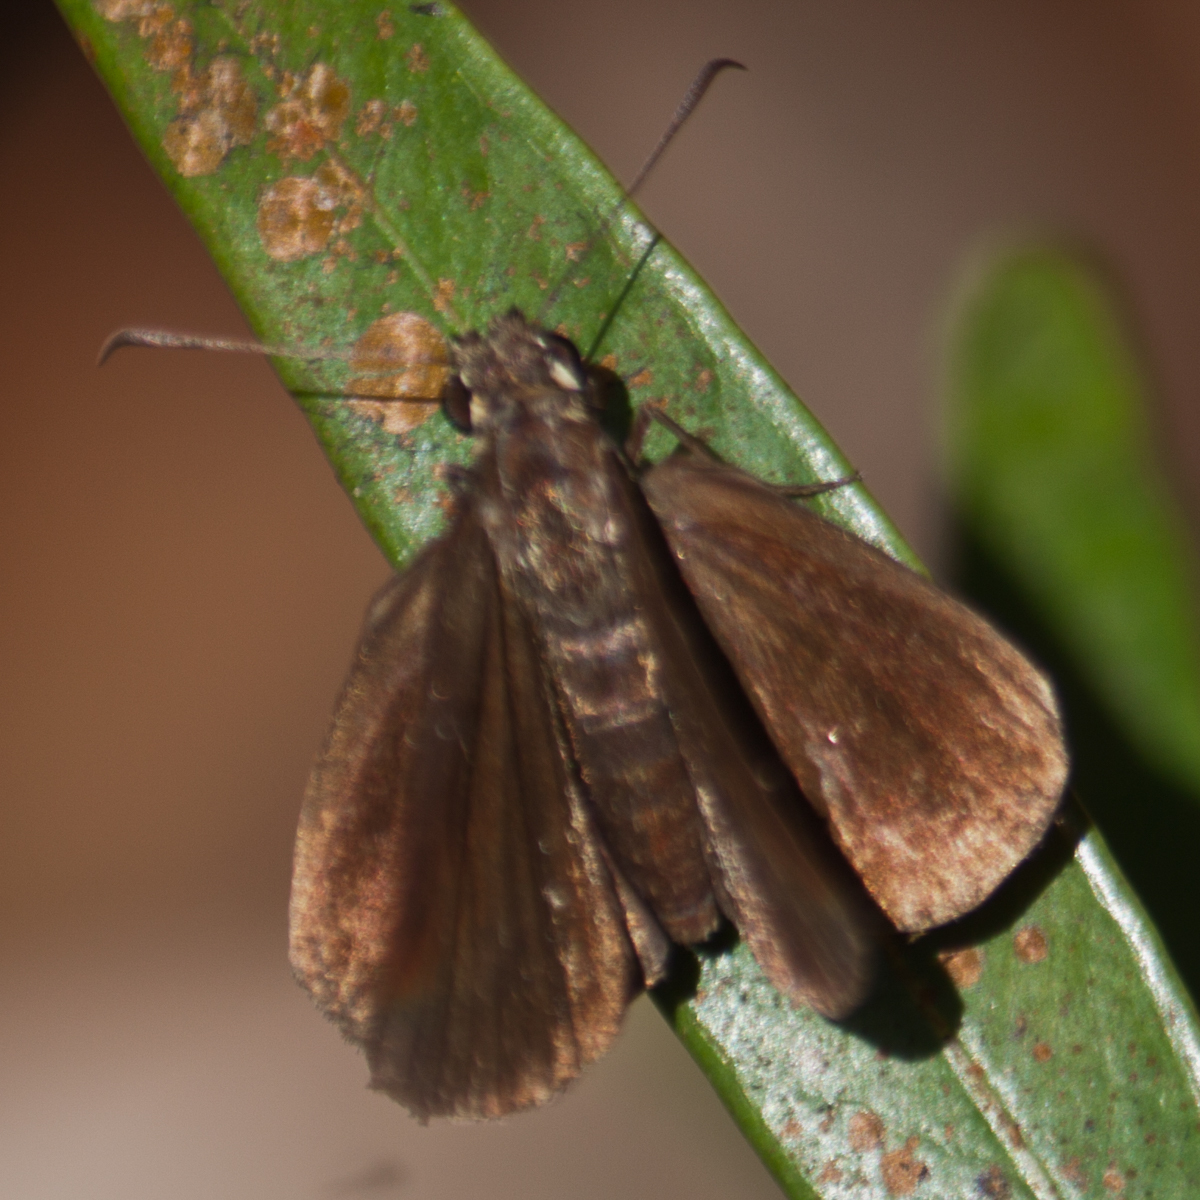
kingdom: Animalia
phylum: Arthropoda
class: Insecta
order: Lepidoptera
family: Hesperiidae
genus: Ancistroides
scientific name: Ancistroides nigrita
